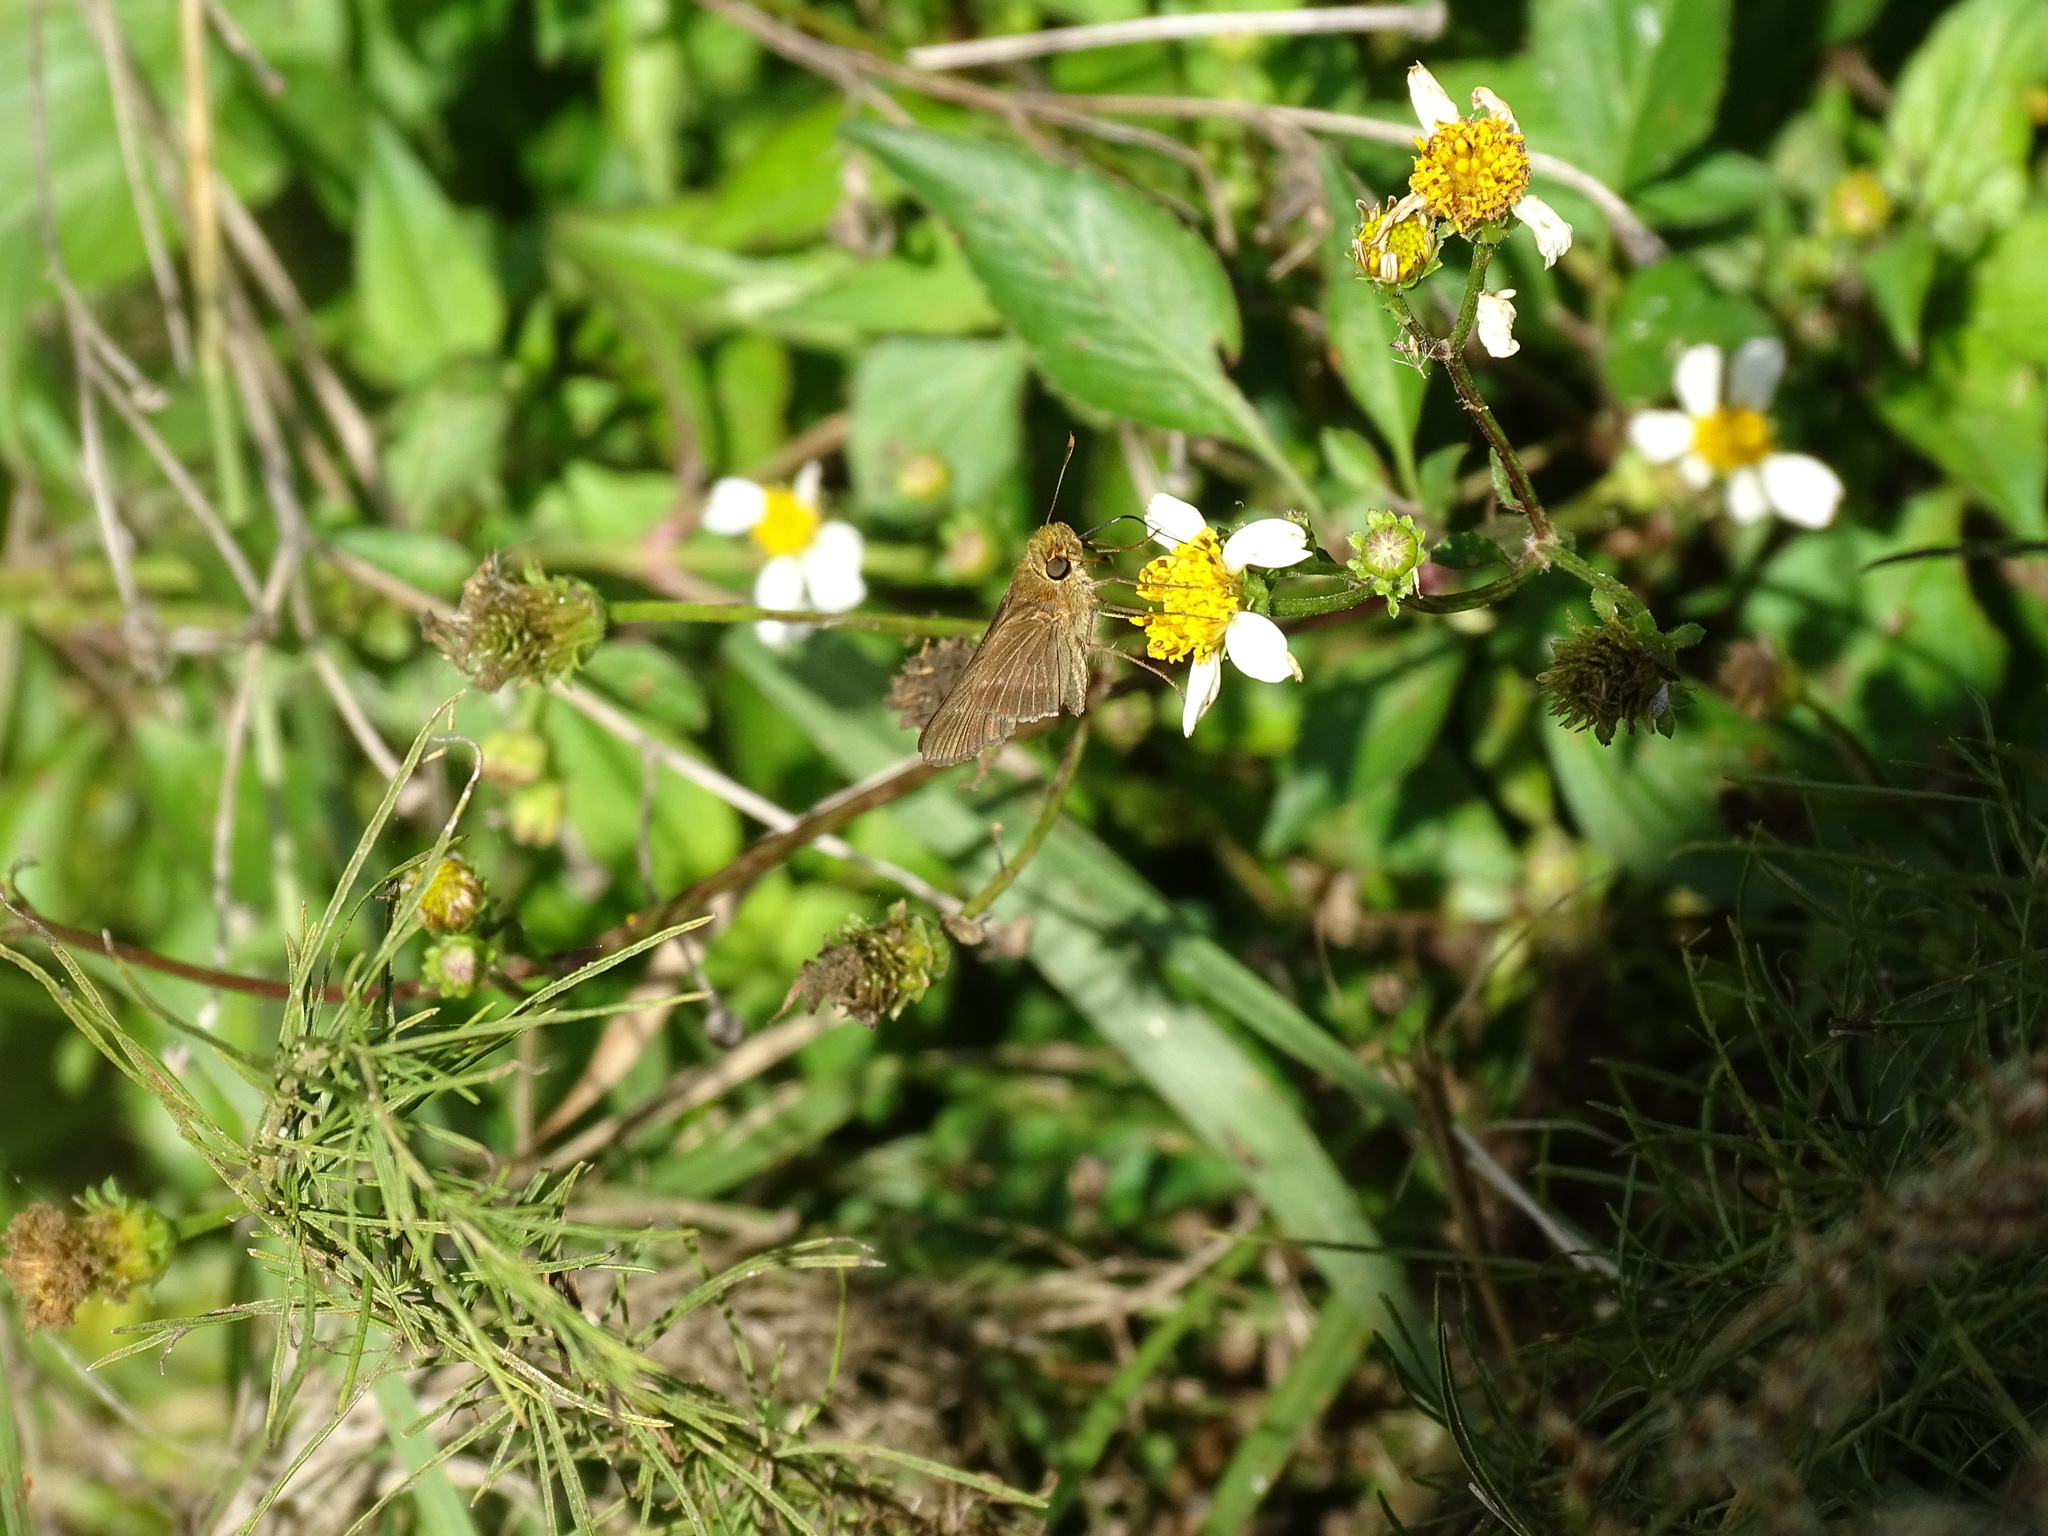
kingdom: Animalia
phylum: Arthropoda
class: Insecta
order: Lepidoptera
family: Hesperiidae
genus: Panoquina
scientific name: Panoquina ocola
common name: Ocola skipper
